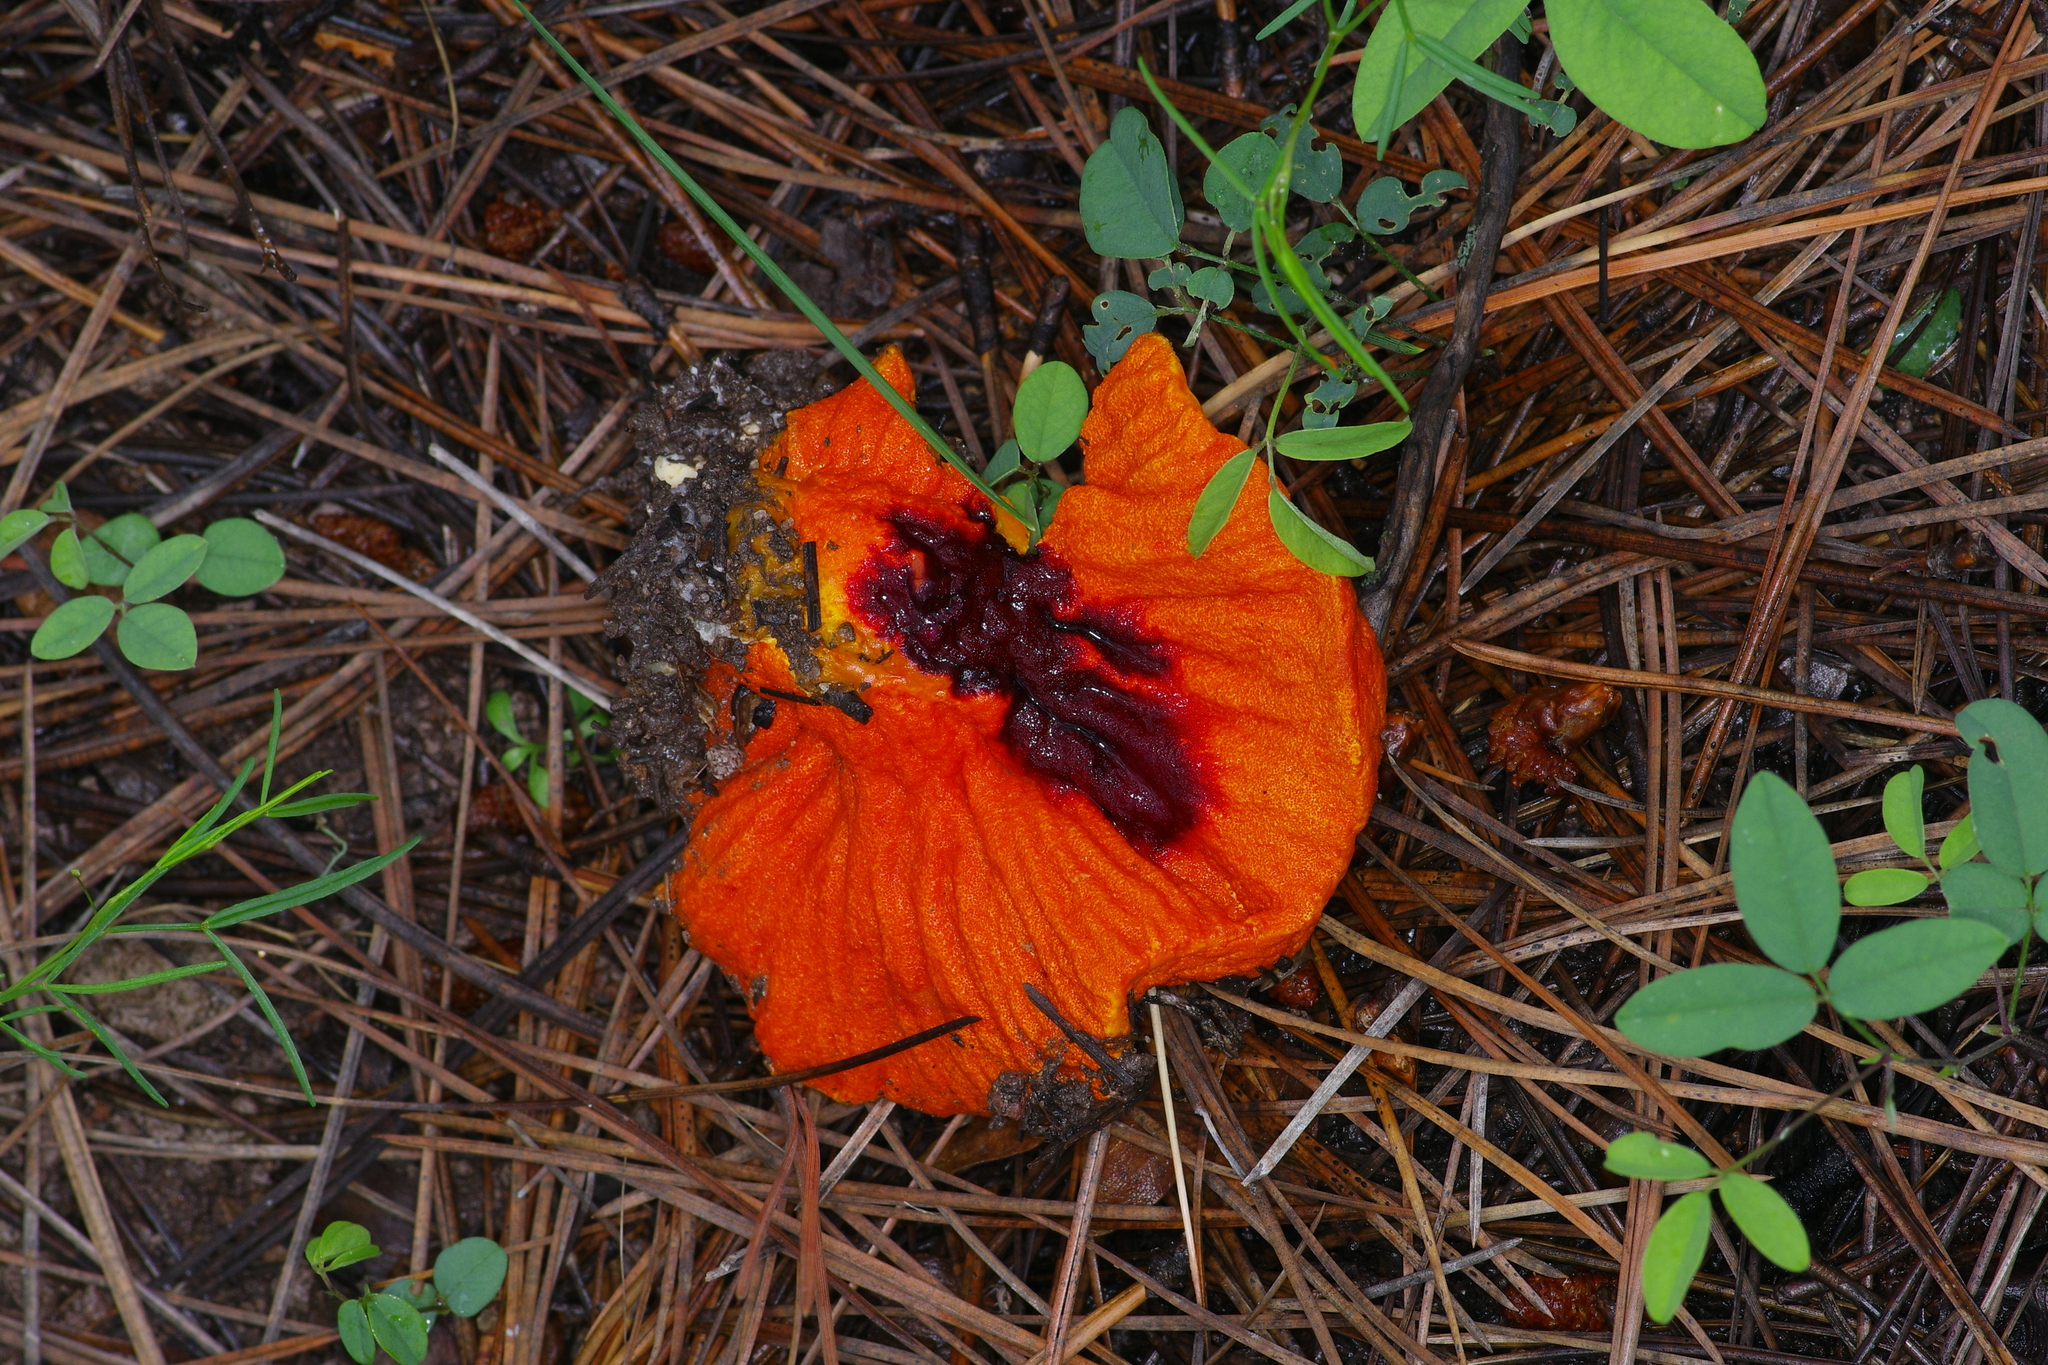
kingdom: Fungi
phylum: Ascomycota
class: Sordariomycetes
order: Hypocreales
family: Hypocreaceae
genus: Hypomyces
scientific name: Hypomyces lactifluorum
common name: Lobster mushroom
